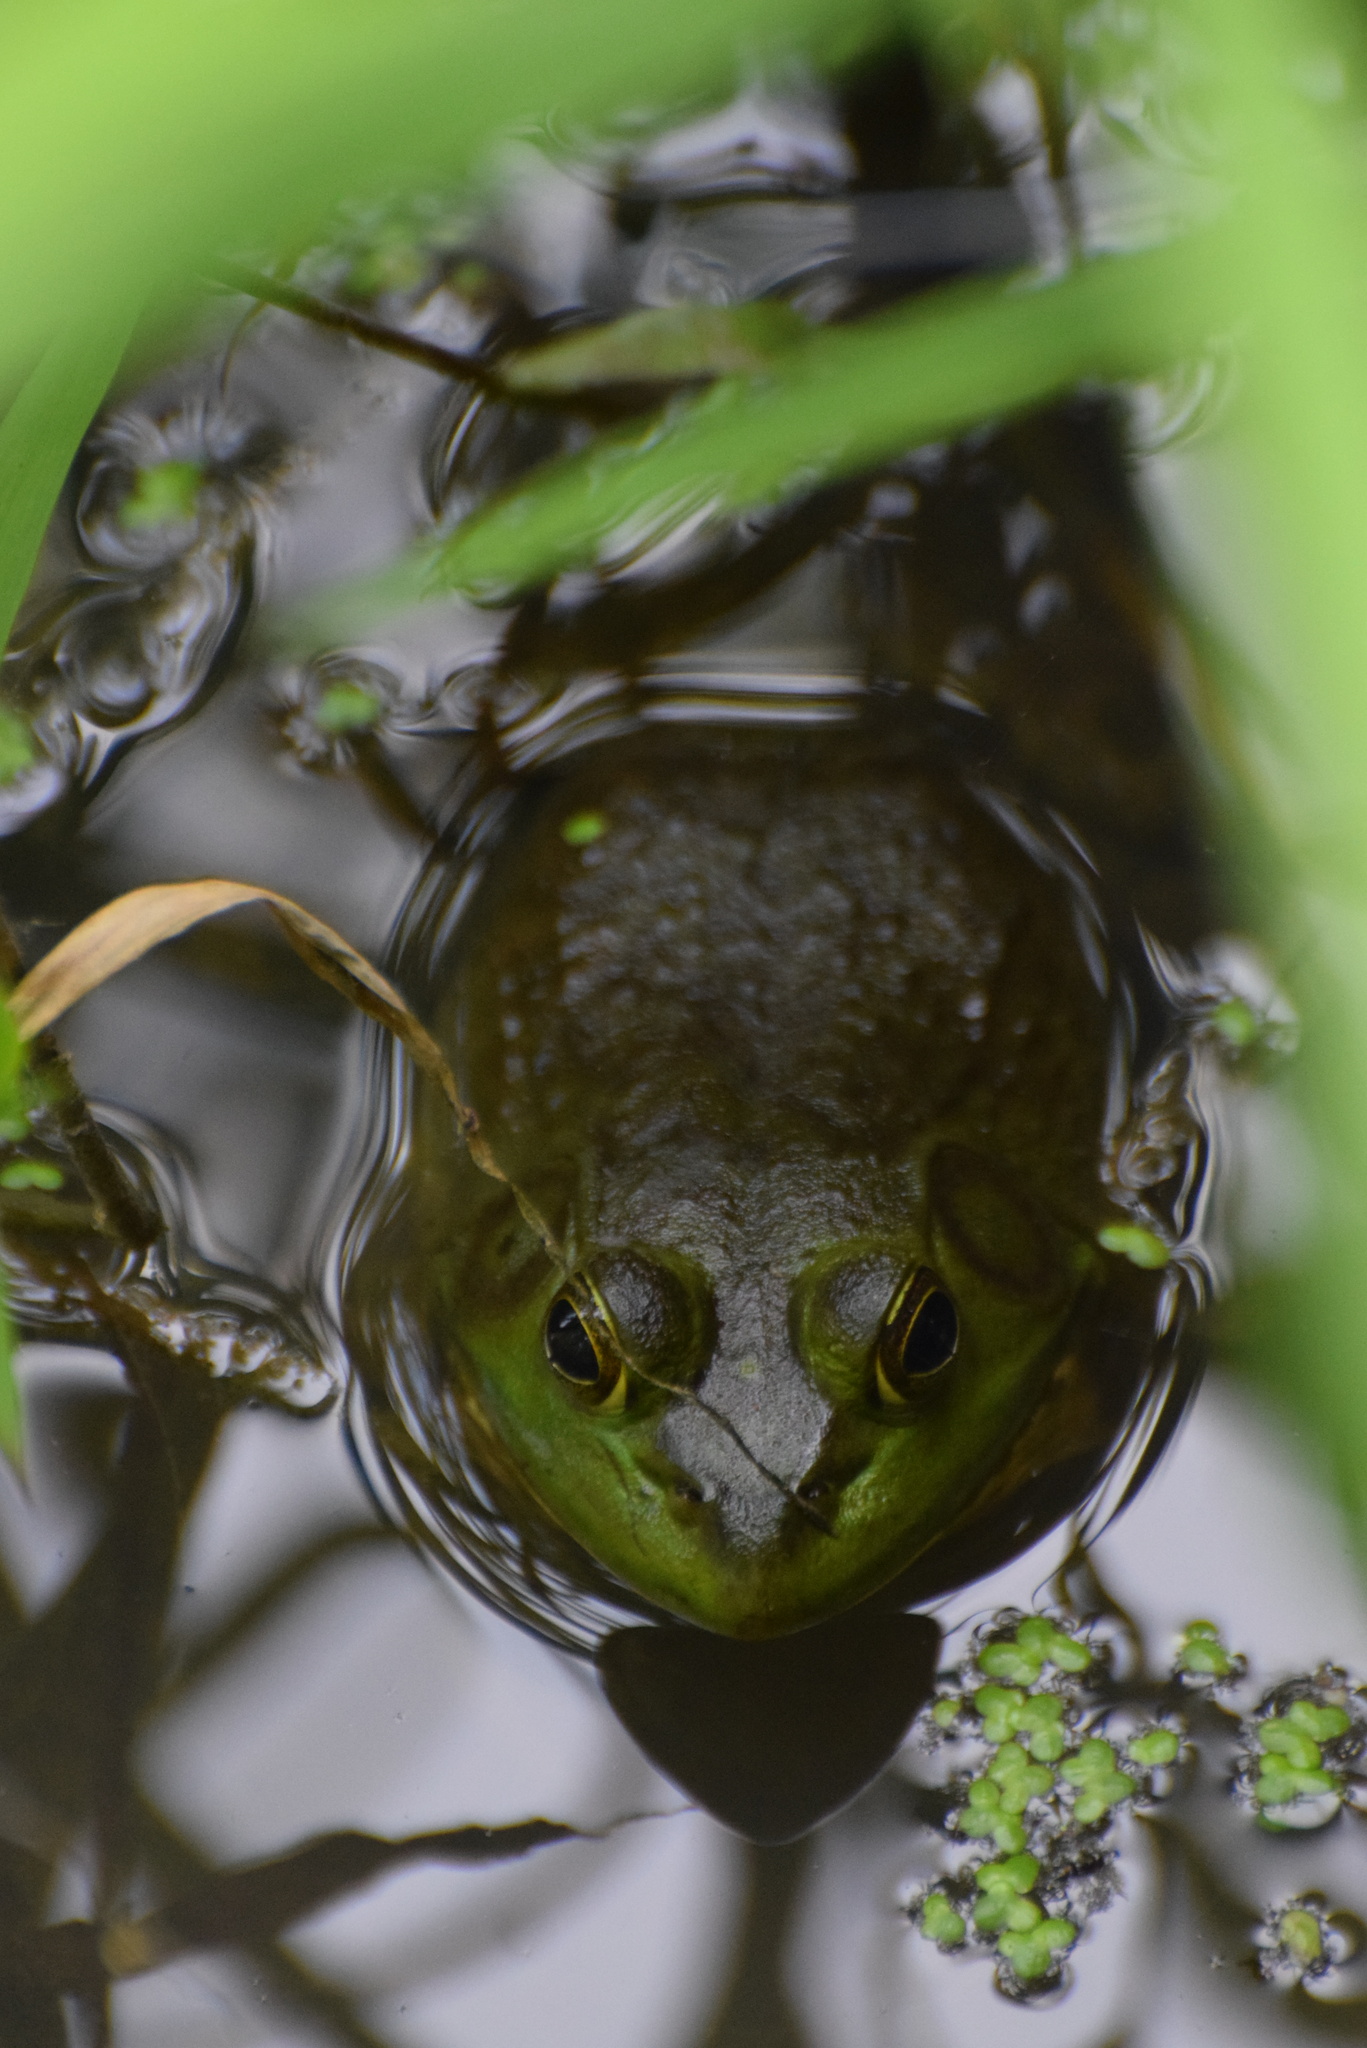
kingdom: Animalia
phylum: Chordata
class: Amphibia
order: Anura
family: Ranidae
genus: Lithobates
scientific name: Lithobates catesbeianus
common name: American bullfrog
